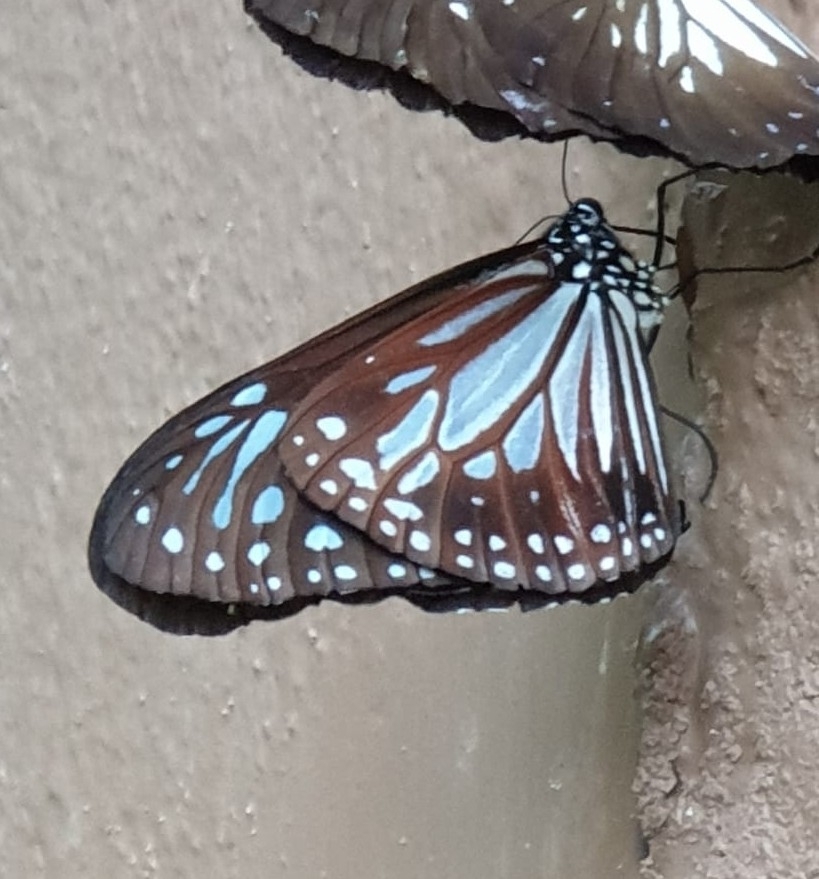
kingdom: Animalia
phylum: Arthropoda
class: Insecta
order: Lepidoptera
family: Nymphalidae
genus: Parantica
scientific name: Parantica melaneus
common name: Chocolate tiger
